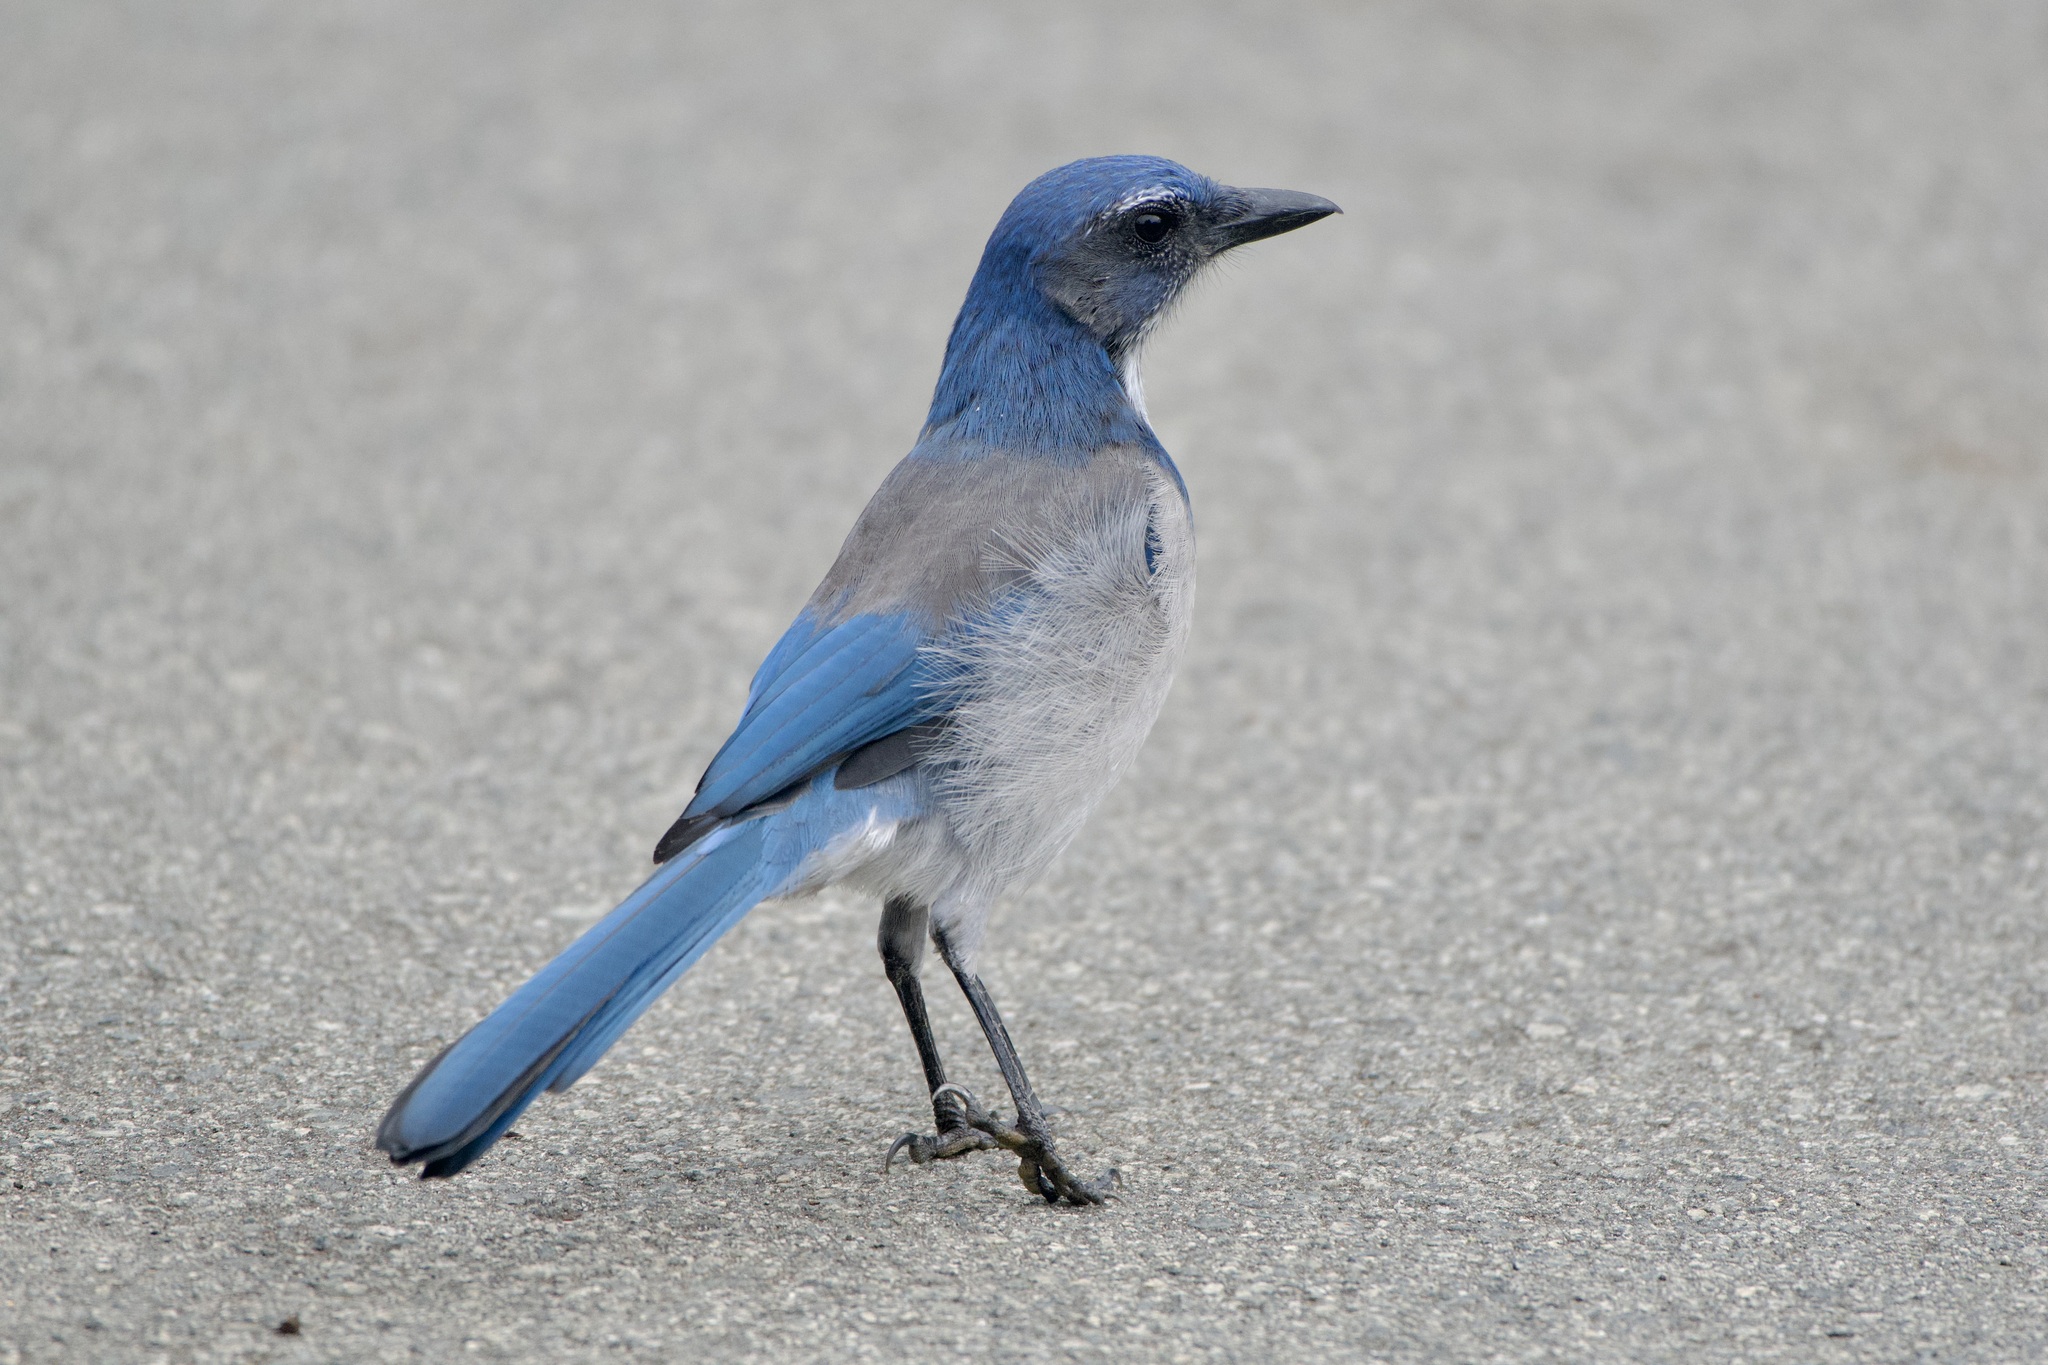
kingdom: Animalia
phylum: Chordata
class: Aves
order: Passeriformes
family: Corvidae
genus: Aphelocoma
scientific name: Aphelocoma californica
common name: California scrub-jay
